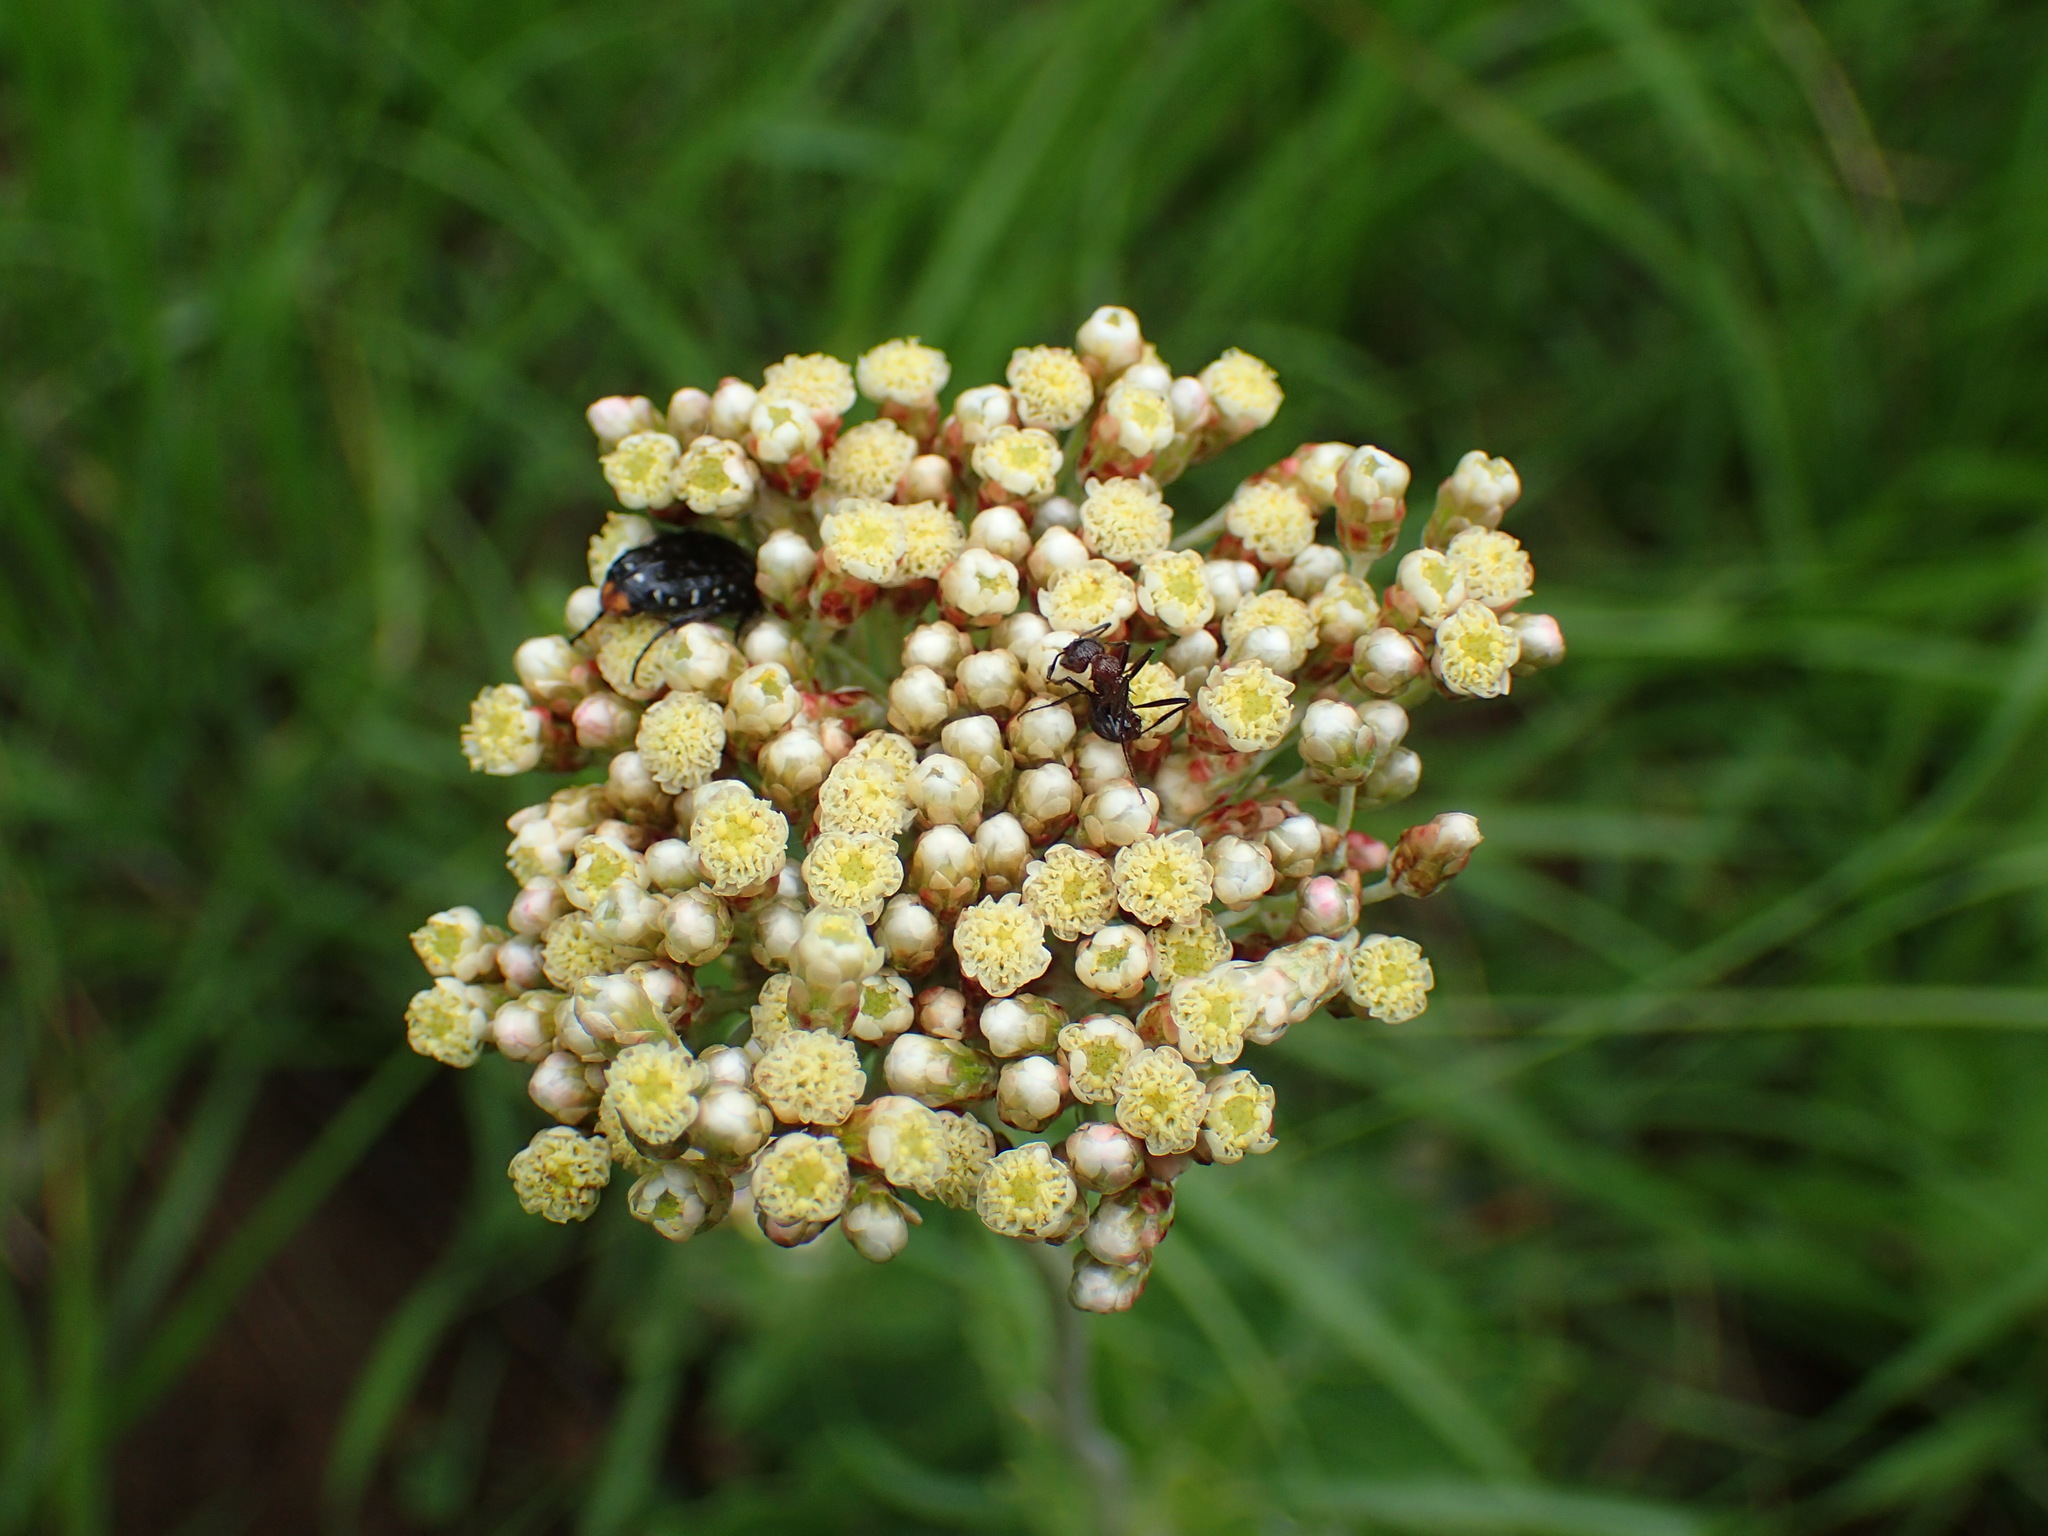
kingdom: Plantae
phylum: Tracheophyta
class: Magnoliopsida
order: Asterales
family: Asteraceae
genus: Helichrysum
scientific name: Helichrysum nudifolium
